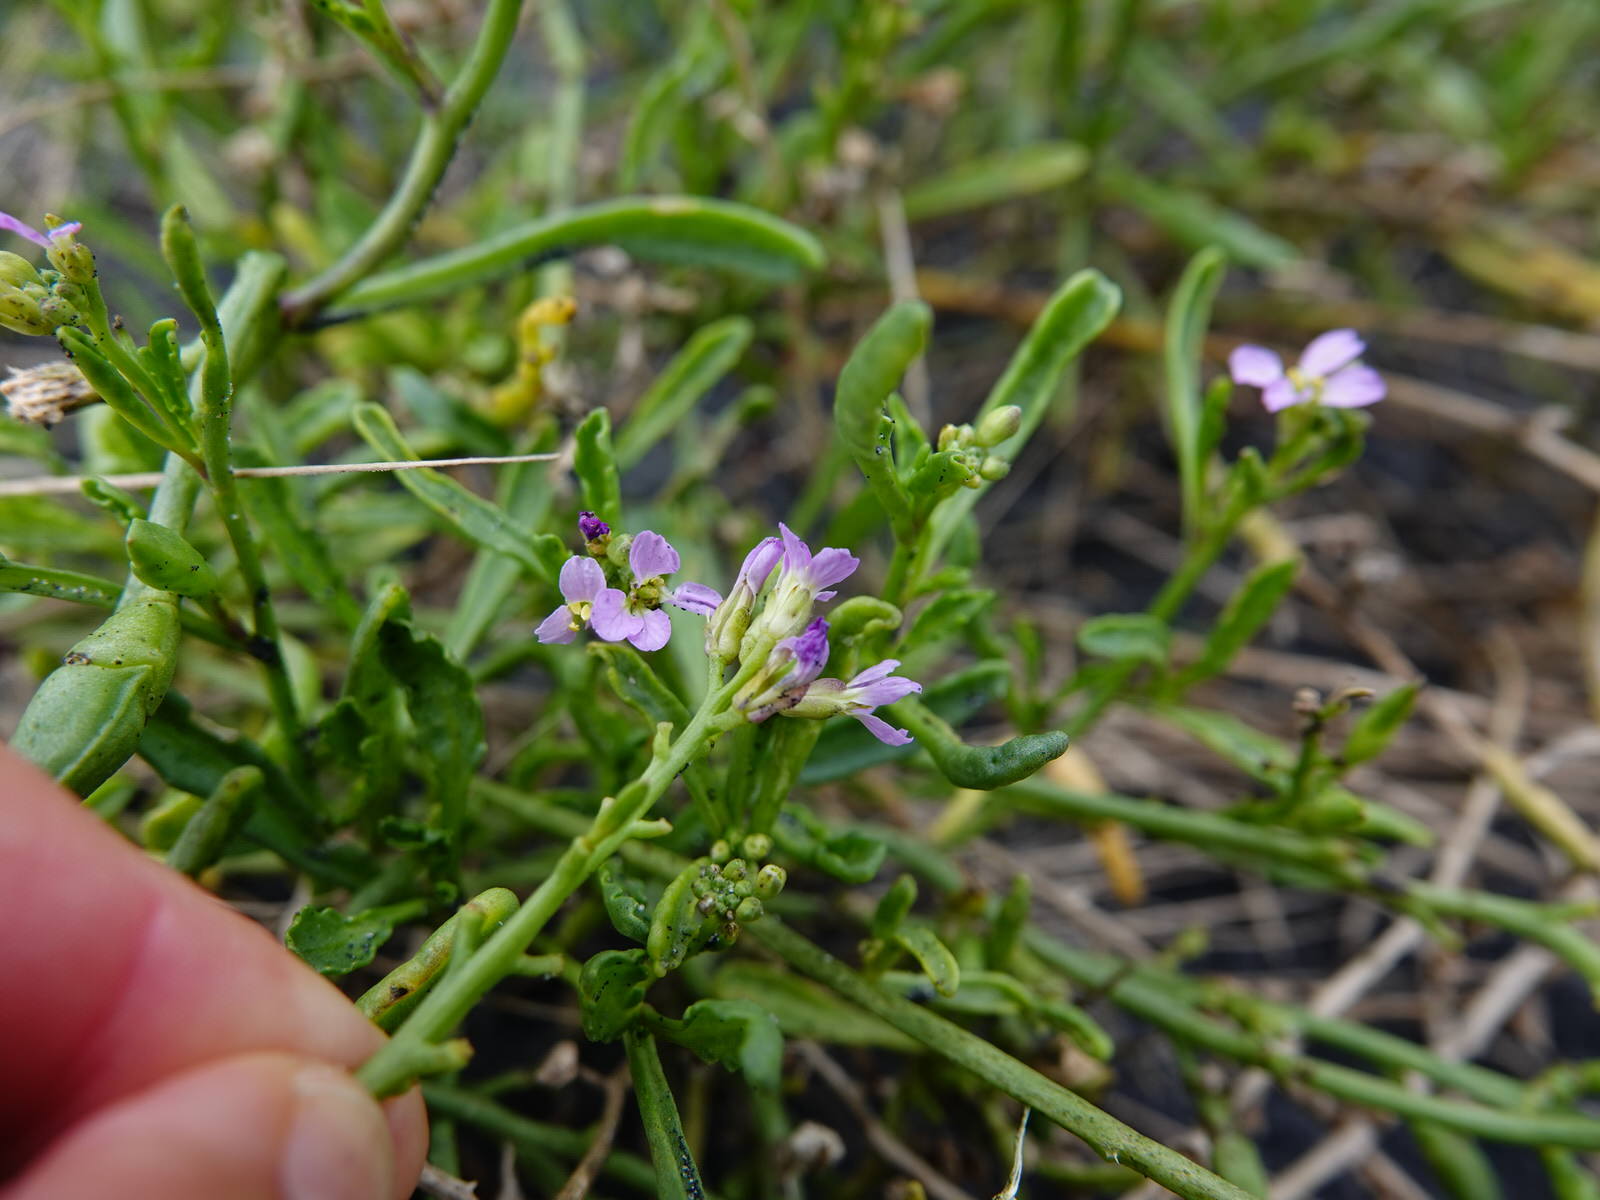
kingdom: Plantae
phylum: Tracheophyta
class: Magnoliopsida
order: Brassicales
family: Brassicaceae
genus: Cakile
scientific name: Cakile edentula
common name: American sea rocket
